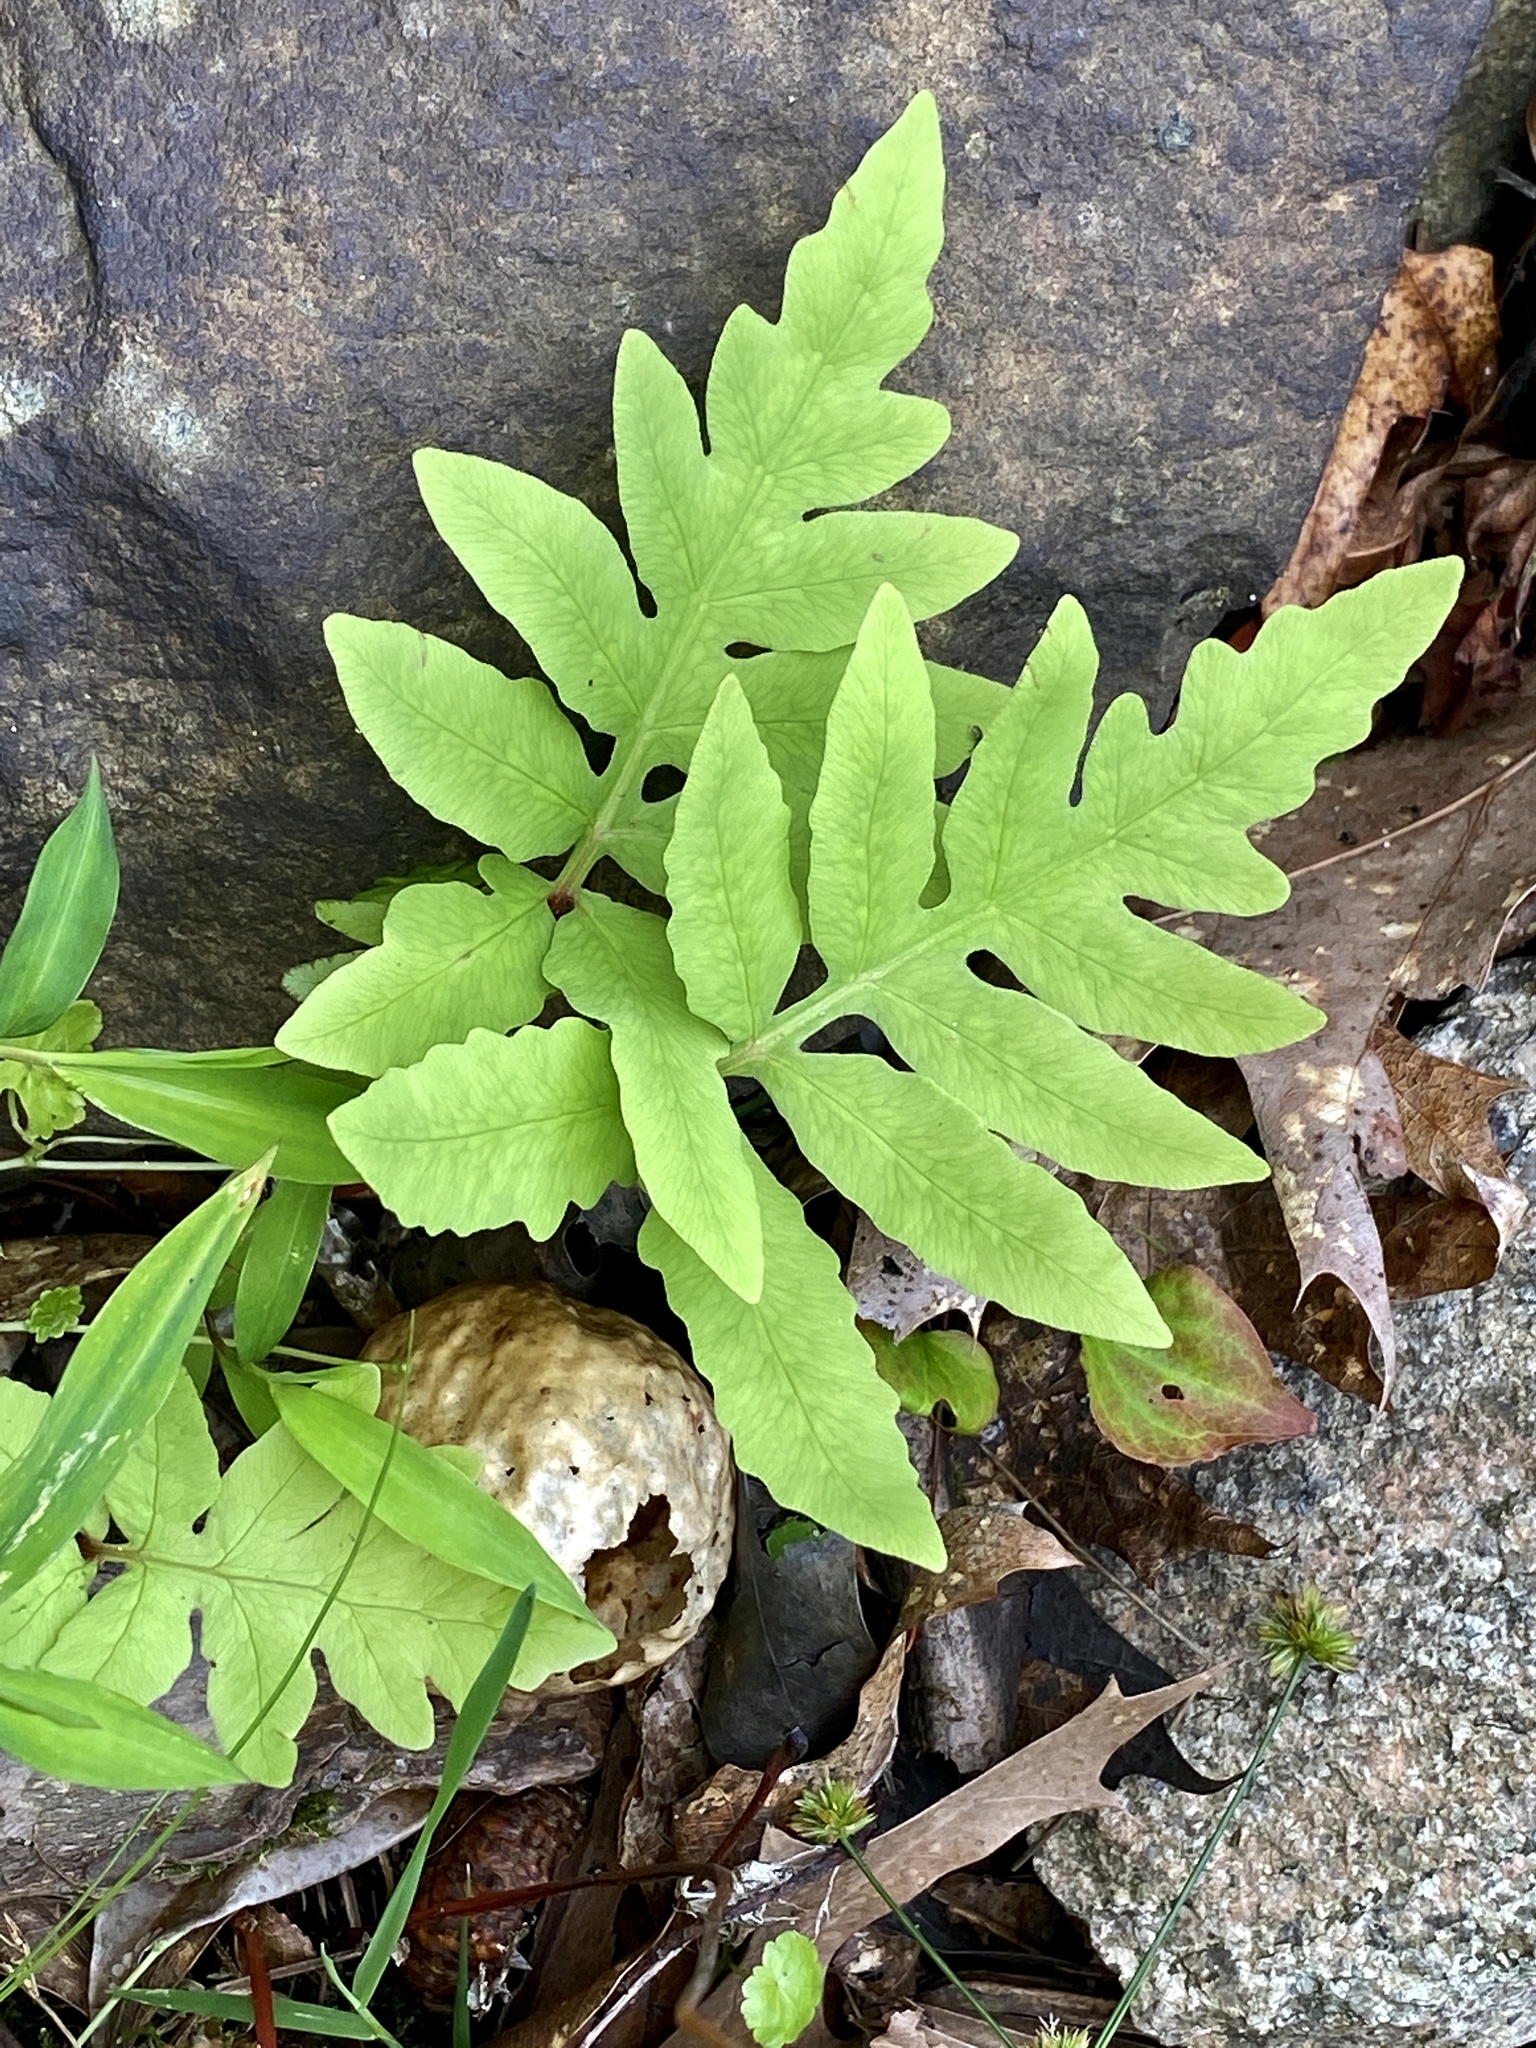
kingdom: Plantae
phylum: Tracheophyta
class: Polypodiopsida
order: Polypodiales
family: Onocleaceae
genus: Onoclea
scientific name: Onoclea sensibilis
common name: Sensitive fern
